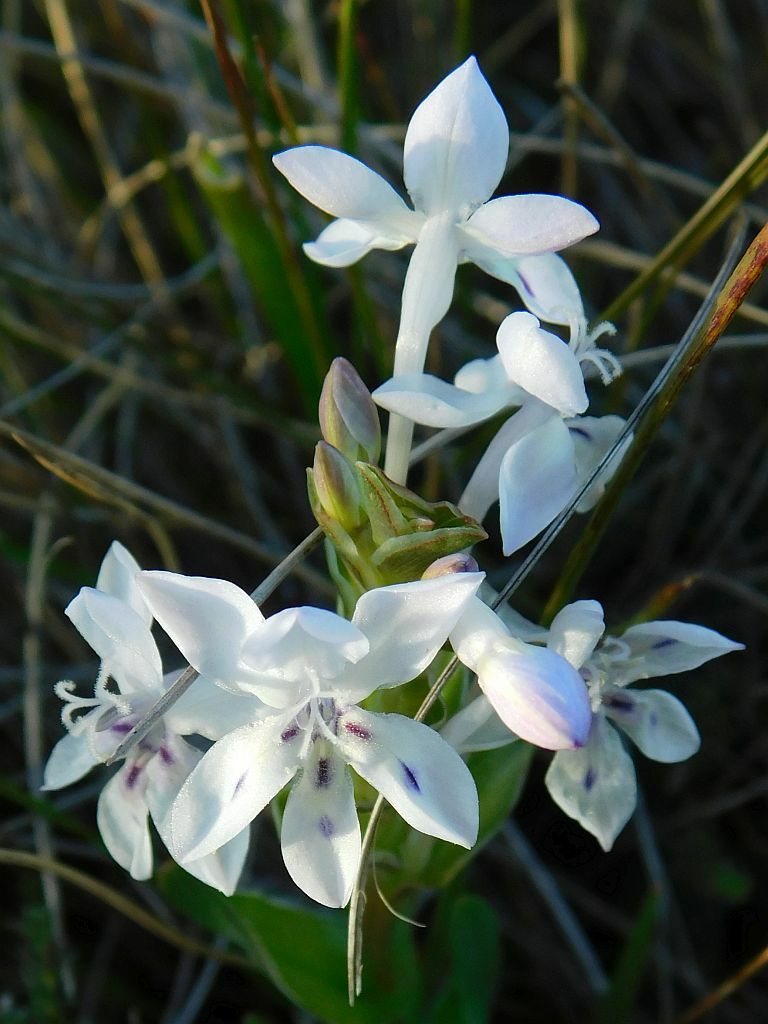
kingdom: Plantae
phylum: Tracheophyta
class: Liliopsida
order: Asparagales
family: Iridaceae
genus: Lapeirousia
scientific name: Lapeirousia pyramidalis
